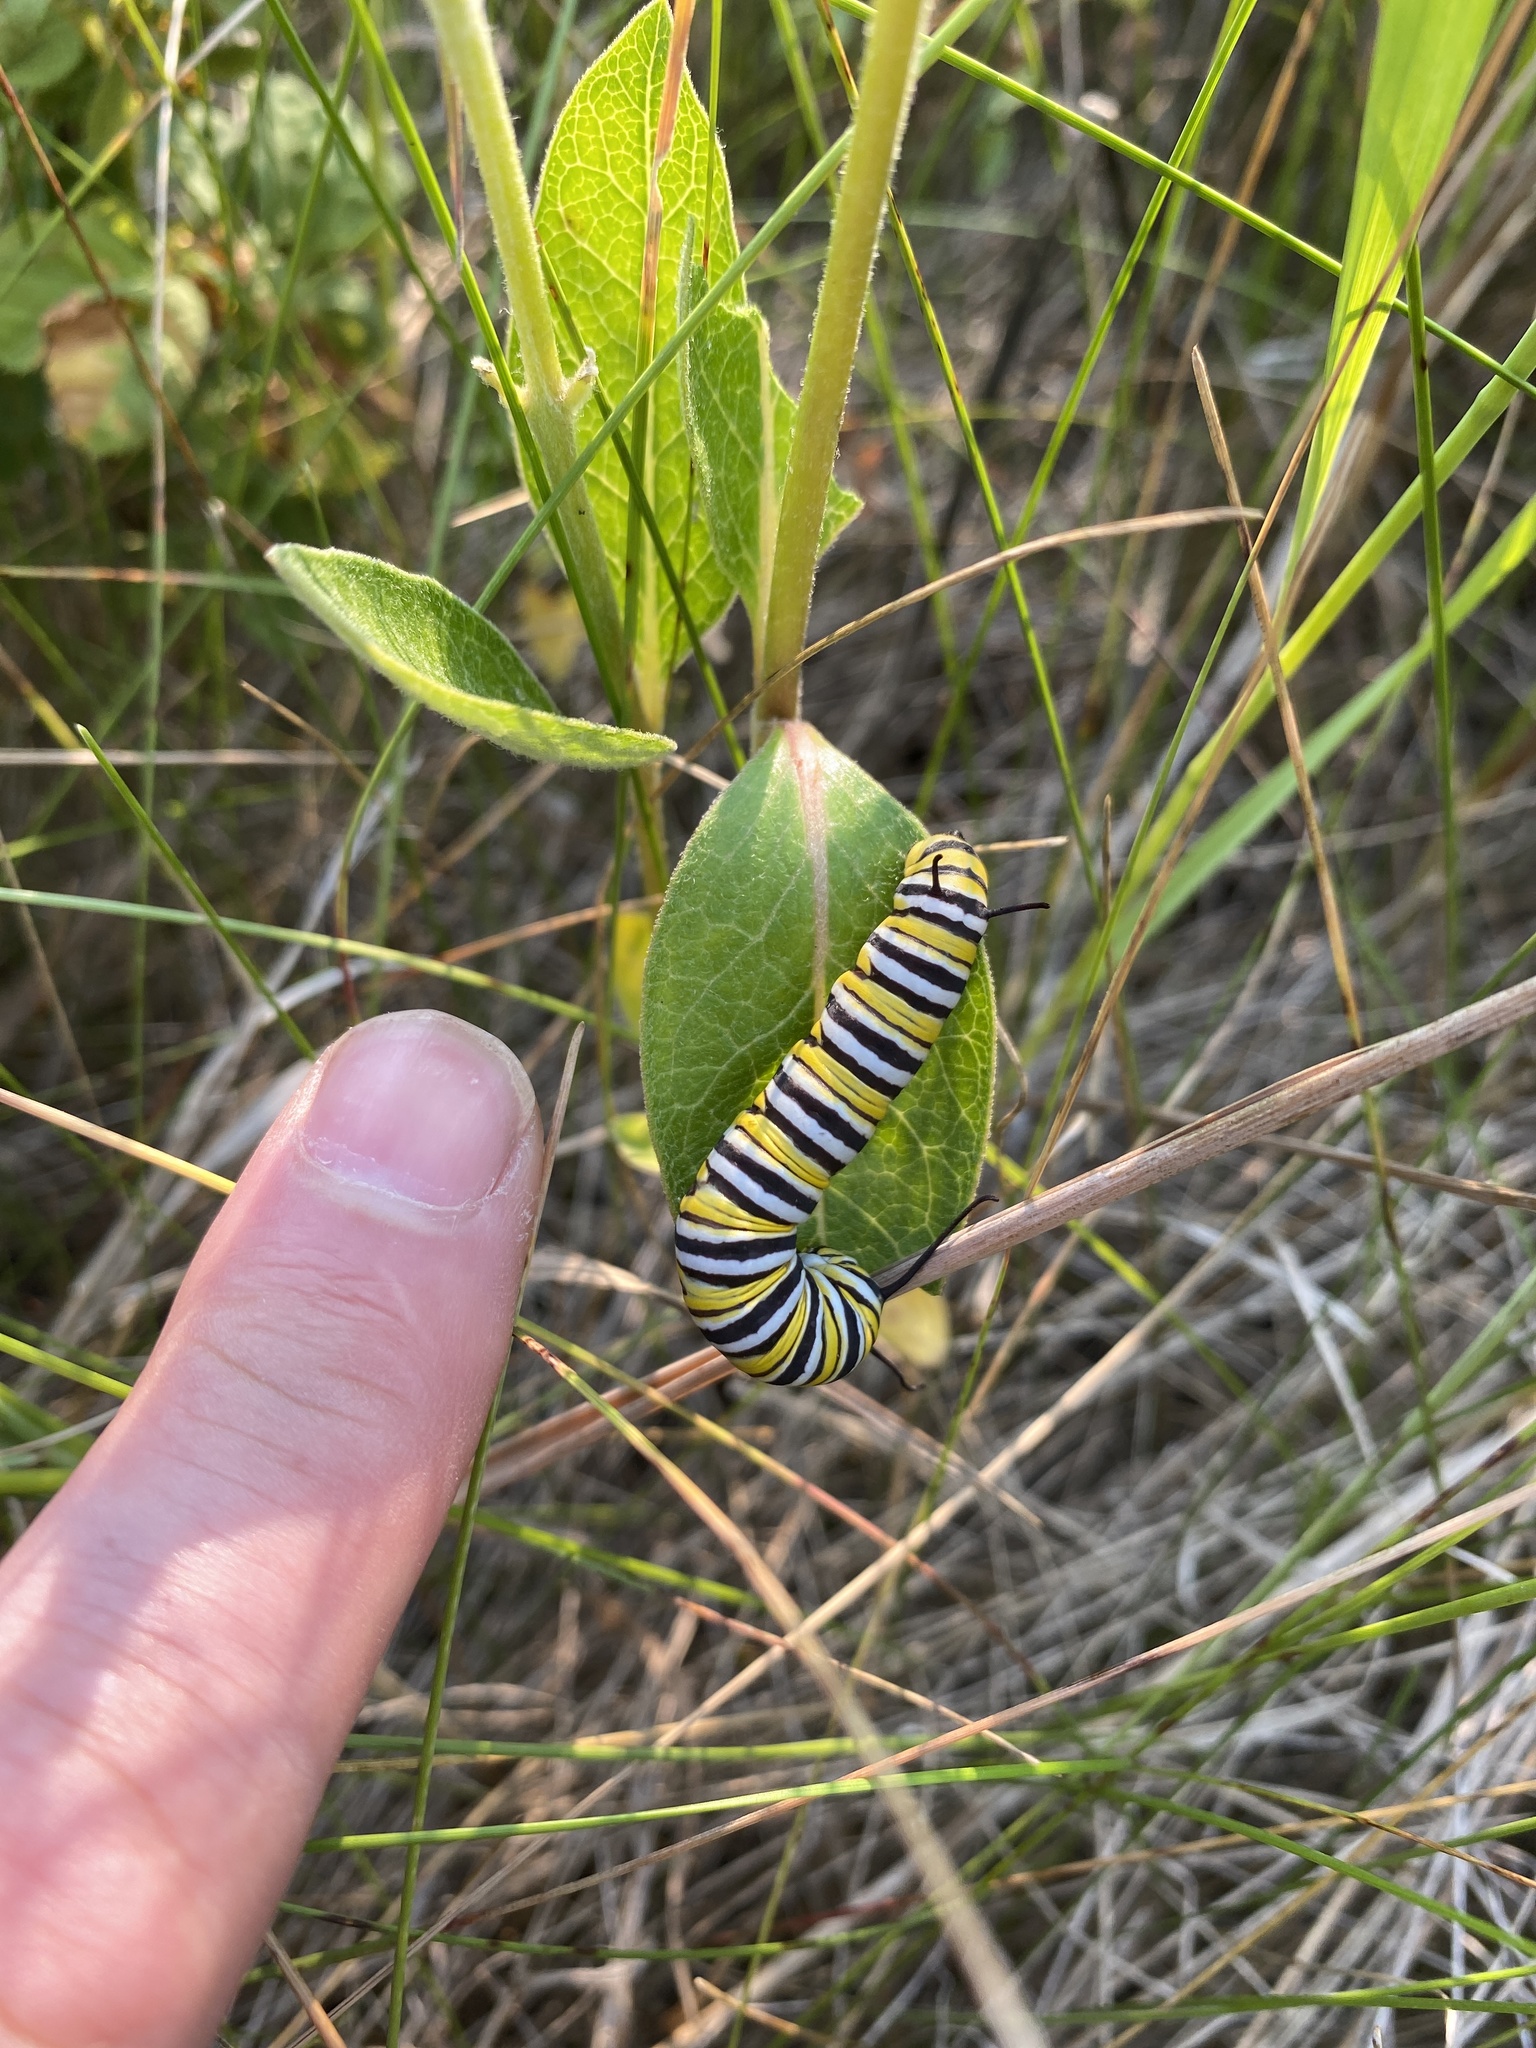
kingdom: Animalia
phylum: Arthropoda
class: Insecta
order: Lepidoptera
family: Nymphalidae
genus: Danaus
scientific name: Danaus plexippus
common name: Monarch
